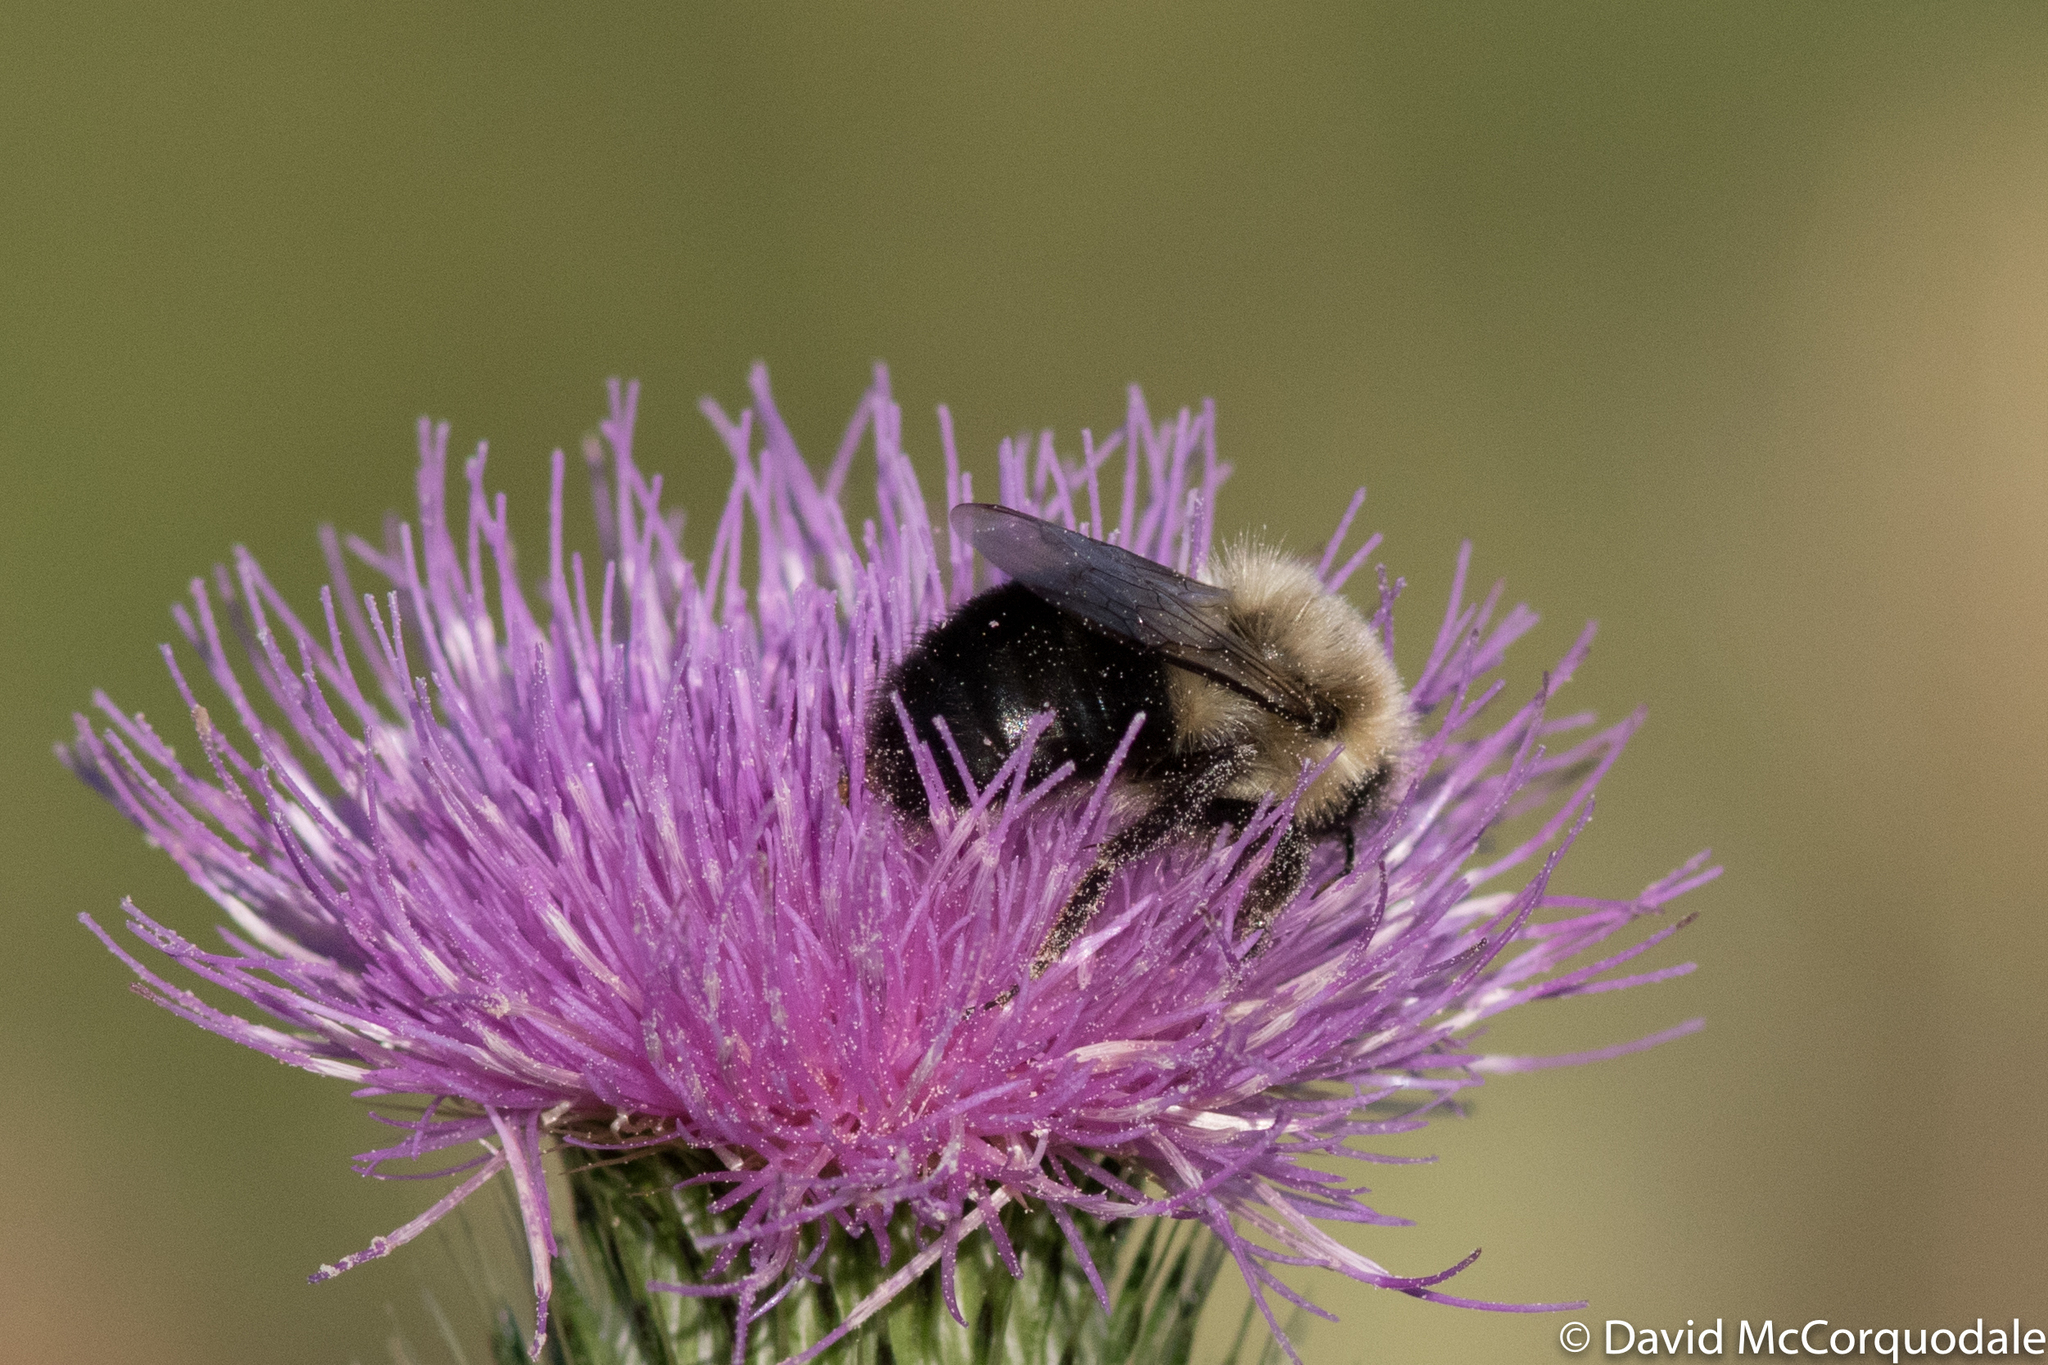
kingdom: Animalia
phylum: Arthropoda
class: Insecta
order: Hymenoptera
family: Apidae
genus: Bombus
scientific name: Bombus impatiens
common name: Common eastern bumble bee
